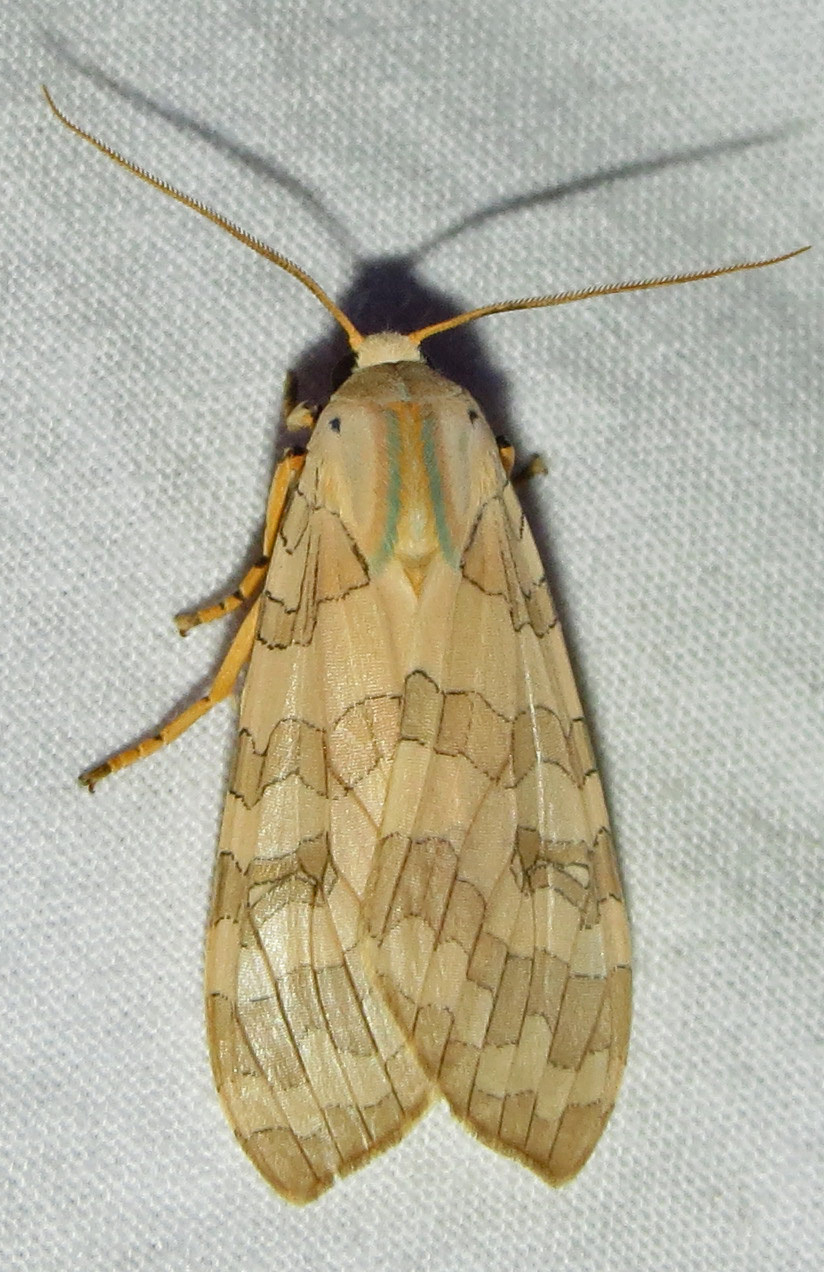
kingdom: Animalia
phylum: Arthropoda
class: Insecta
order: Lepidoptera
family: Erebidae
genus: Halysidota
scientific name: Halysidota
